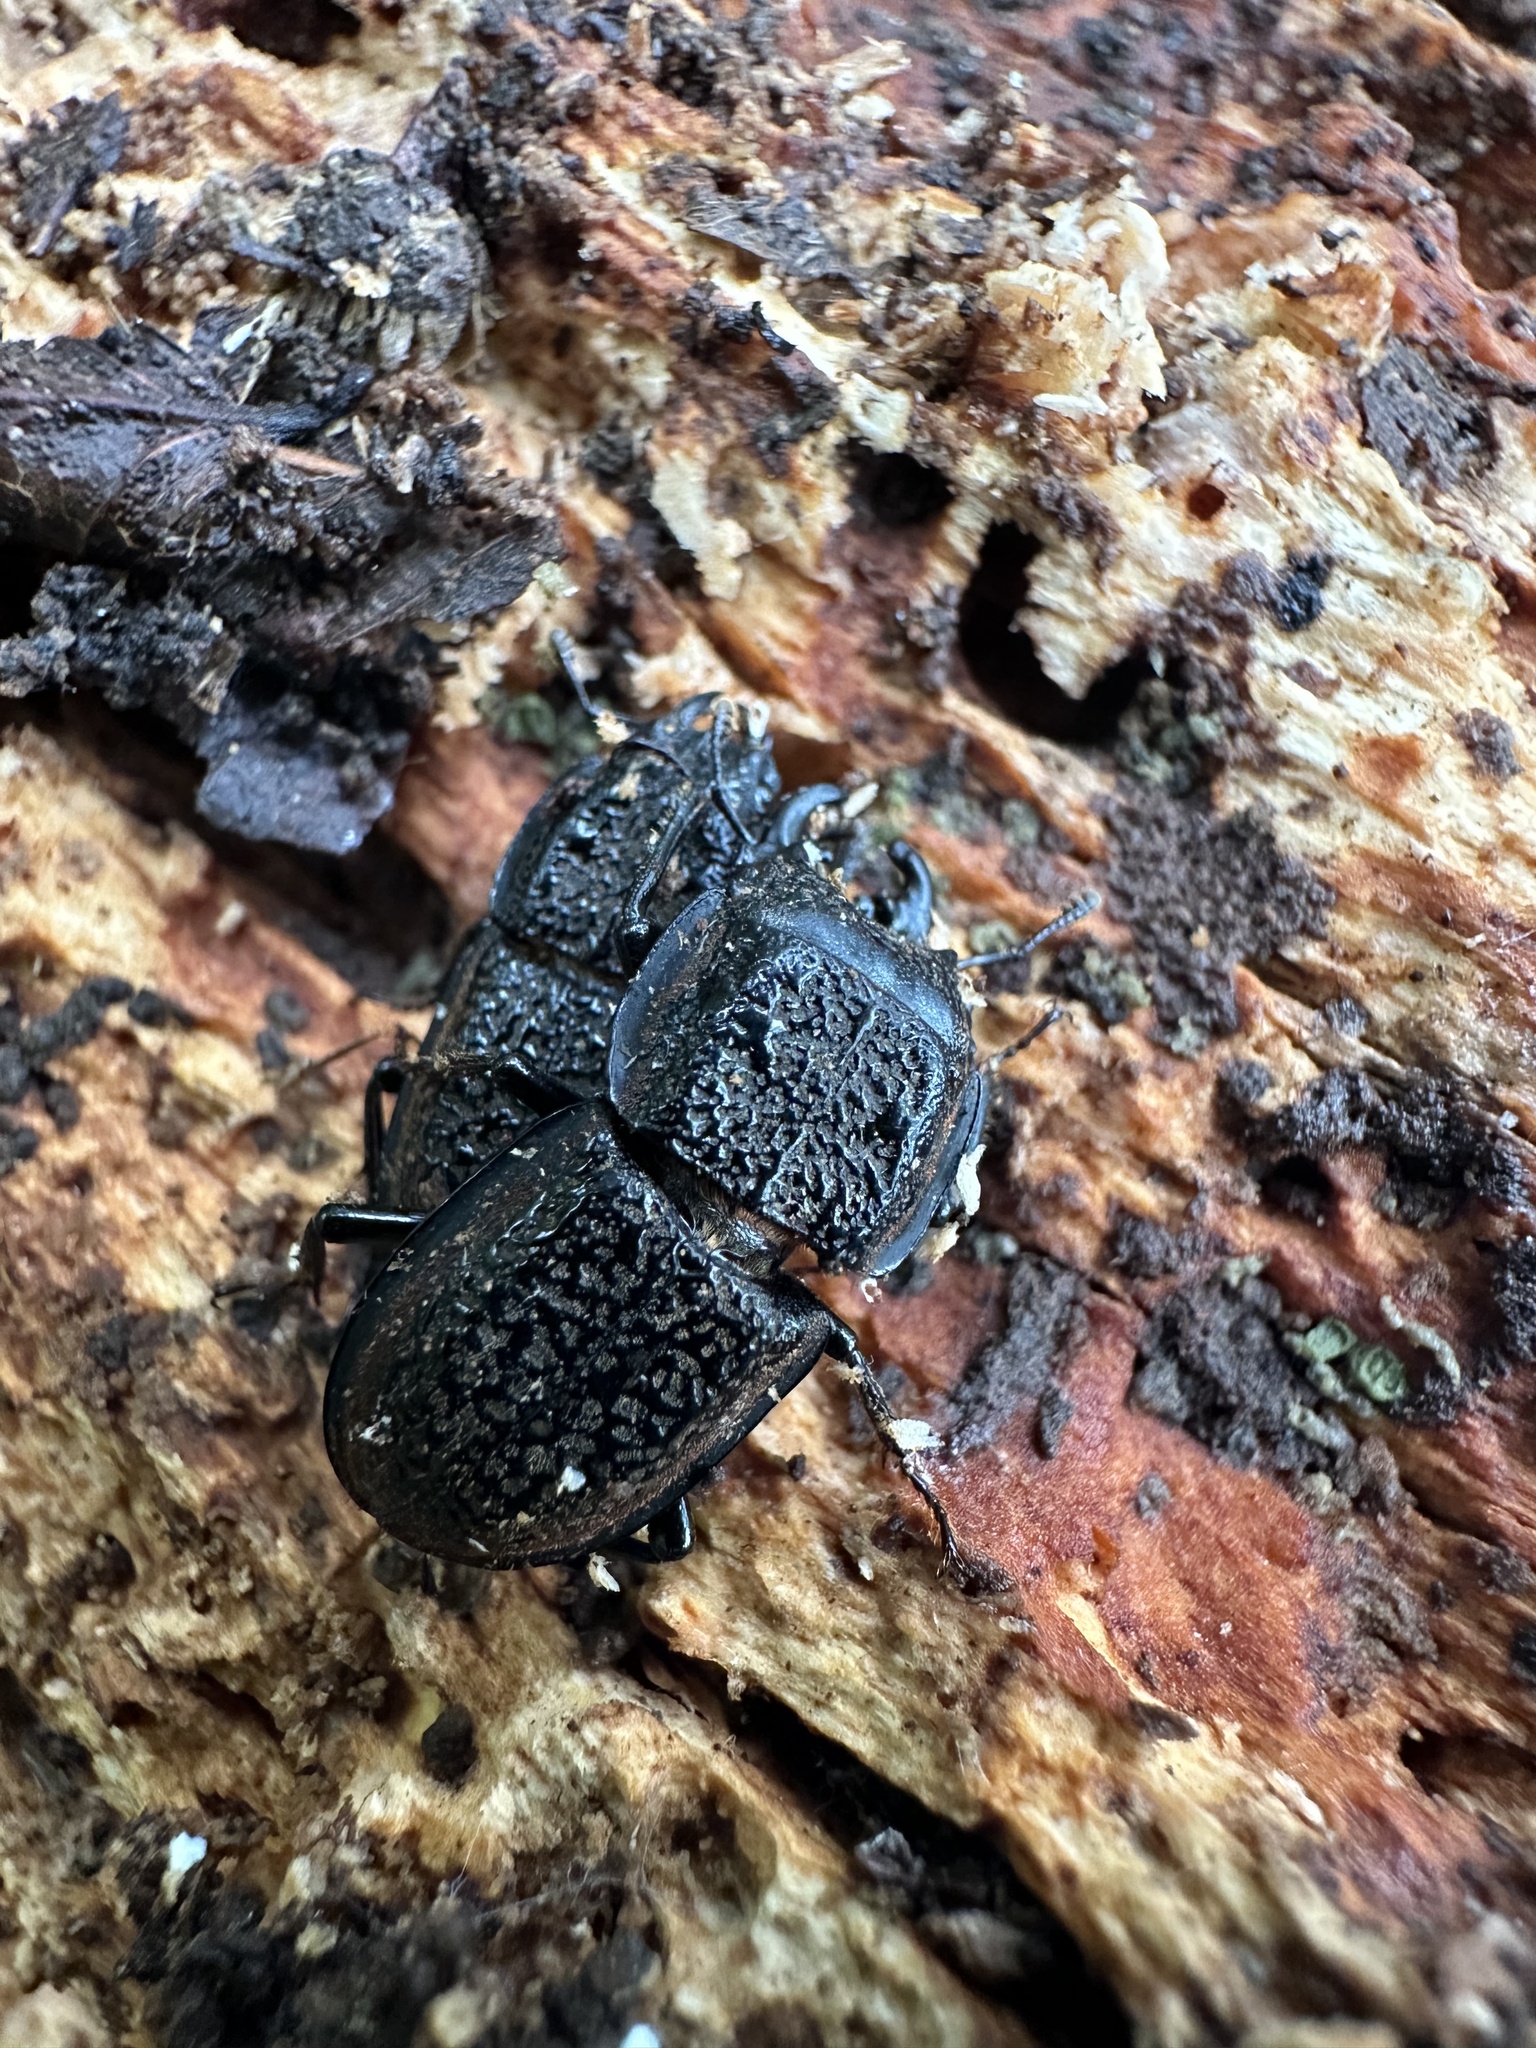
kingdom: Animalia
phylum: Arthropoda
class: Insecta
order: Coleoptera
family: Lucanidae
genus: Erichius
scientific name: Erichius caelatus
